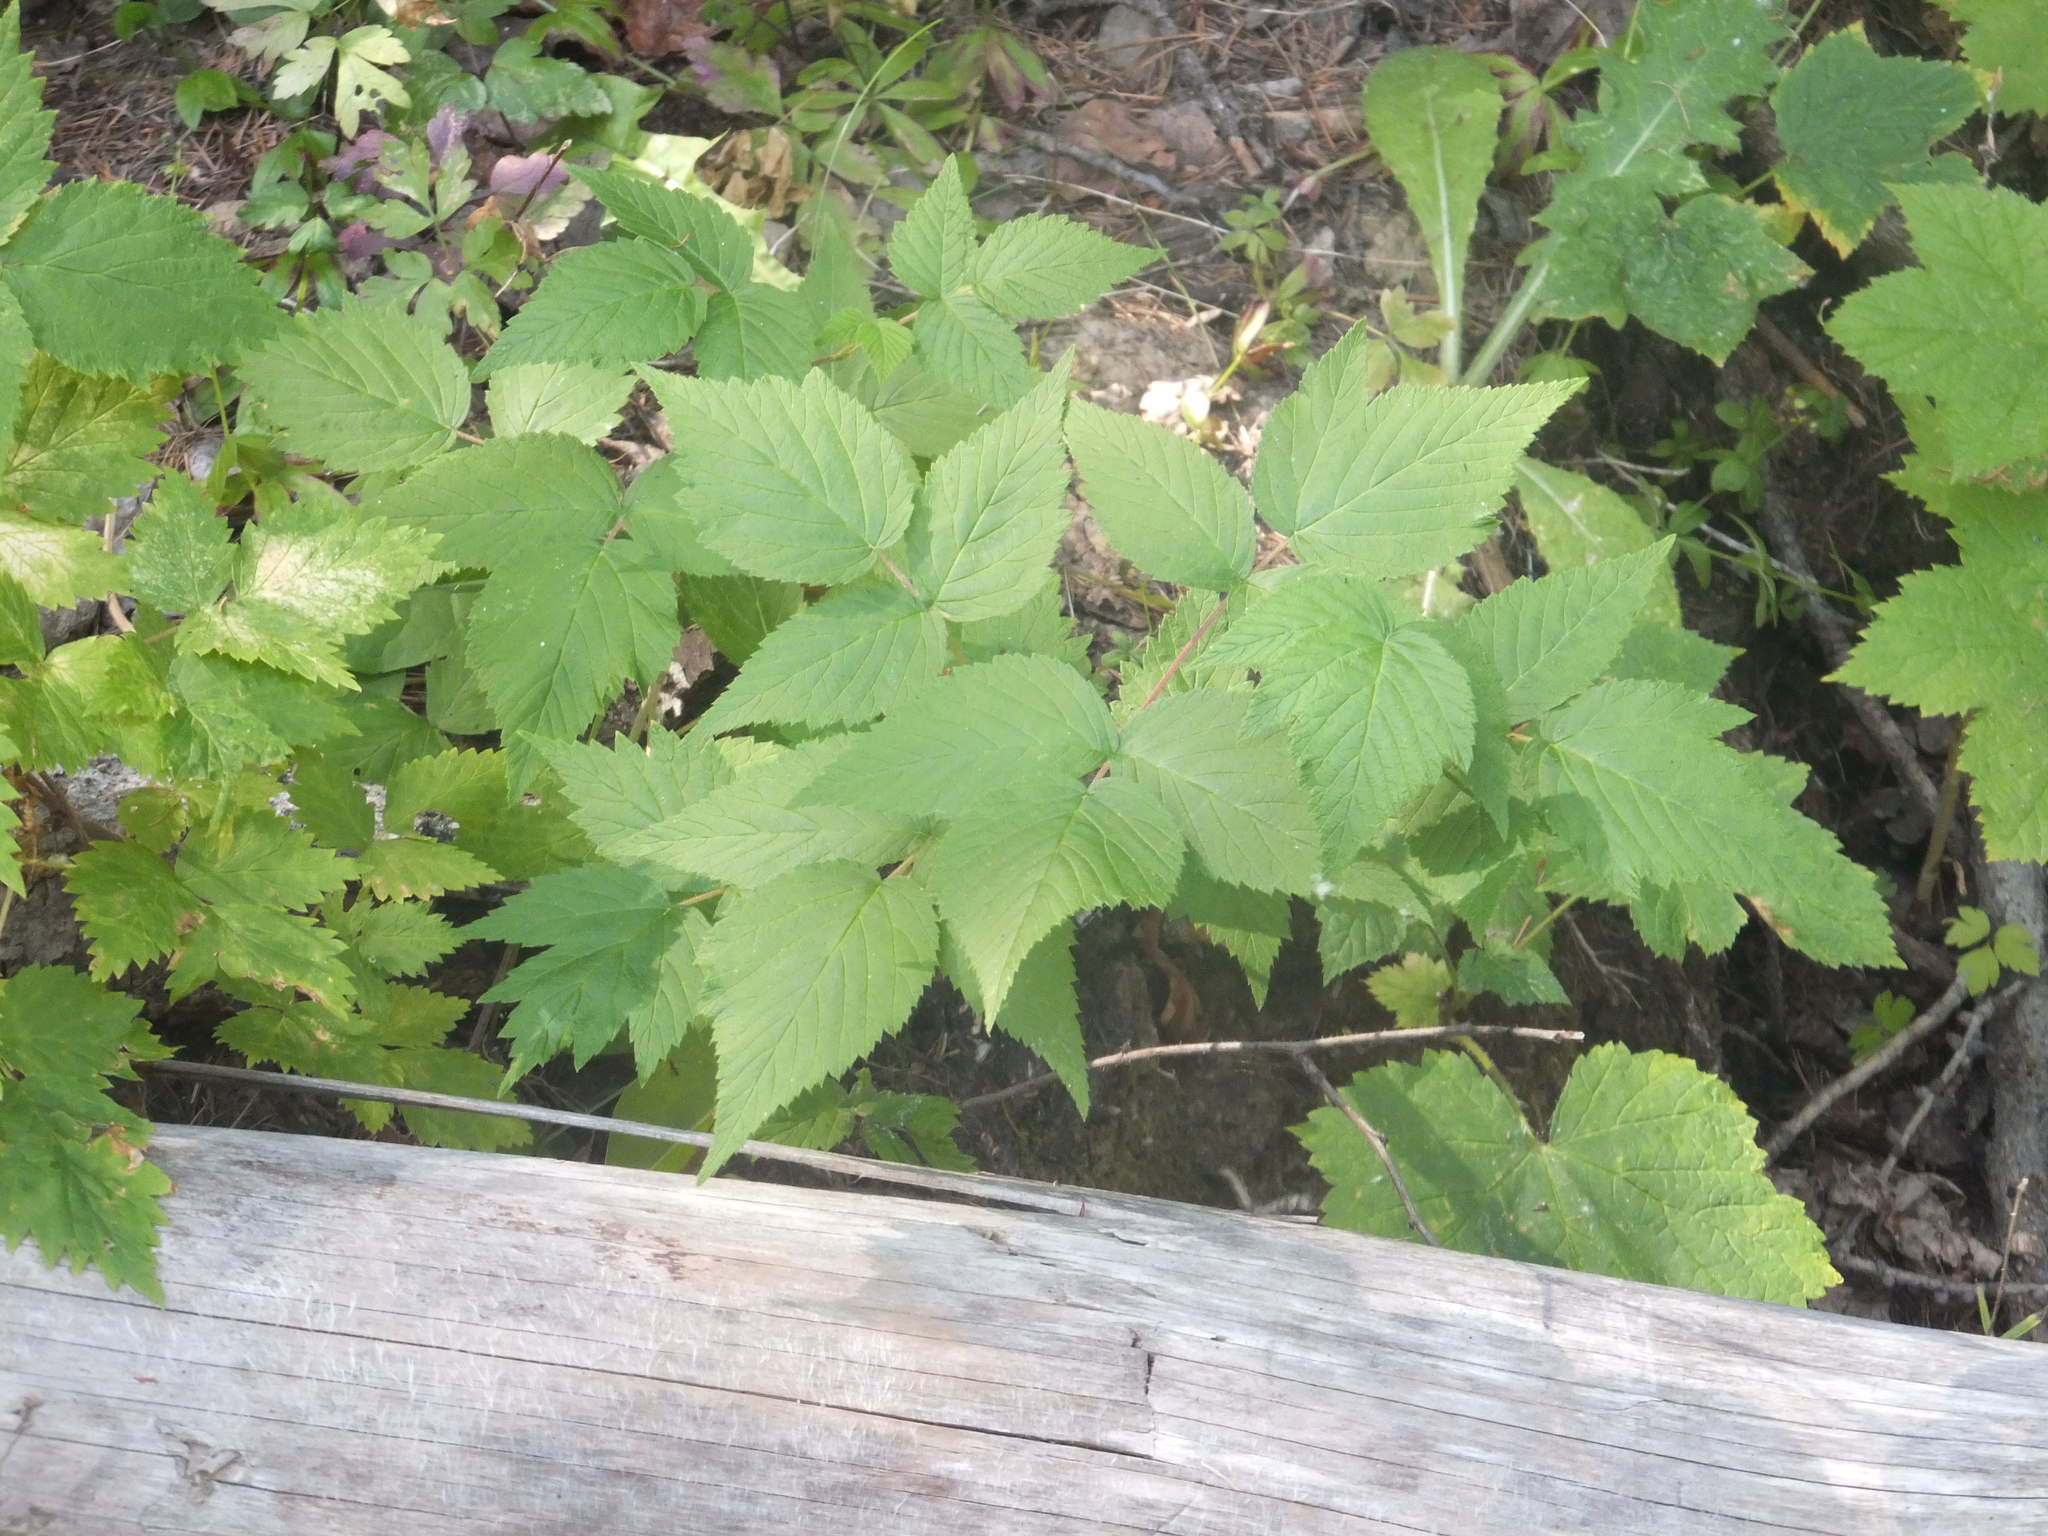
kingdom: Plantae
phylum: Tracheophyta
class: Magnoliopsida
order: Rosales
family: Rosaceae
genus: Rubus
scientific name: Rubus idaeus
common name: Raspberry
